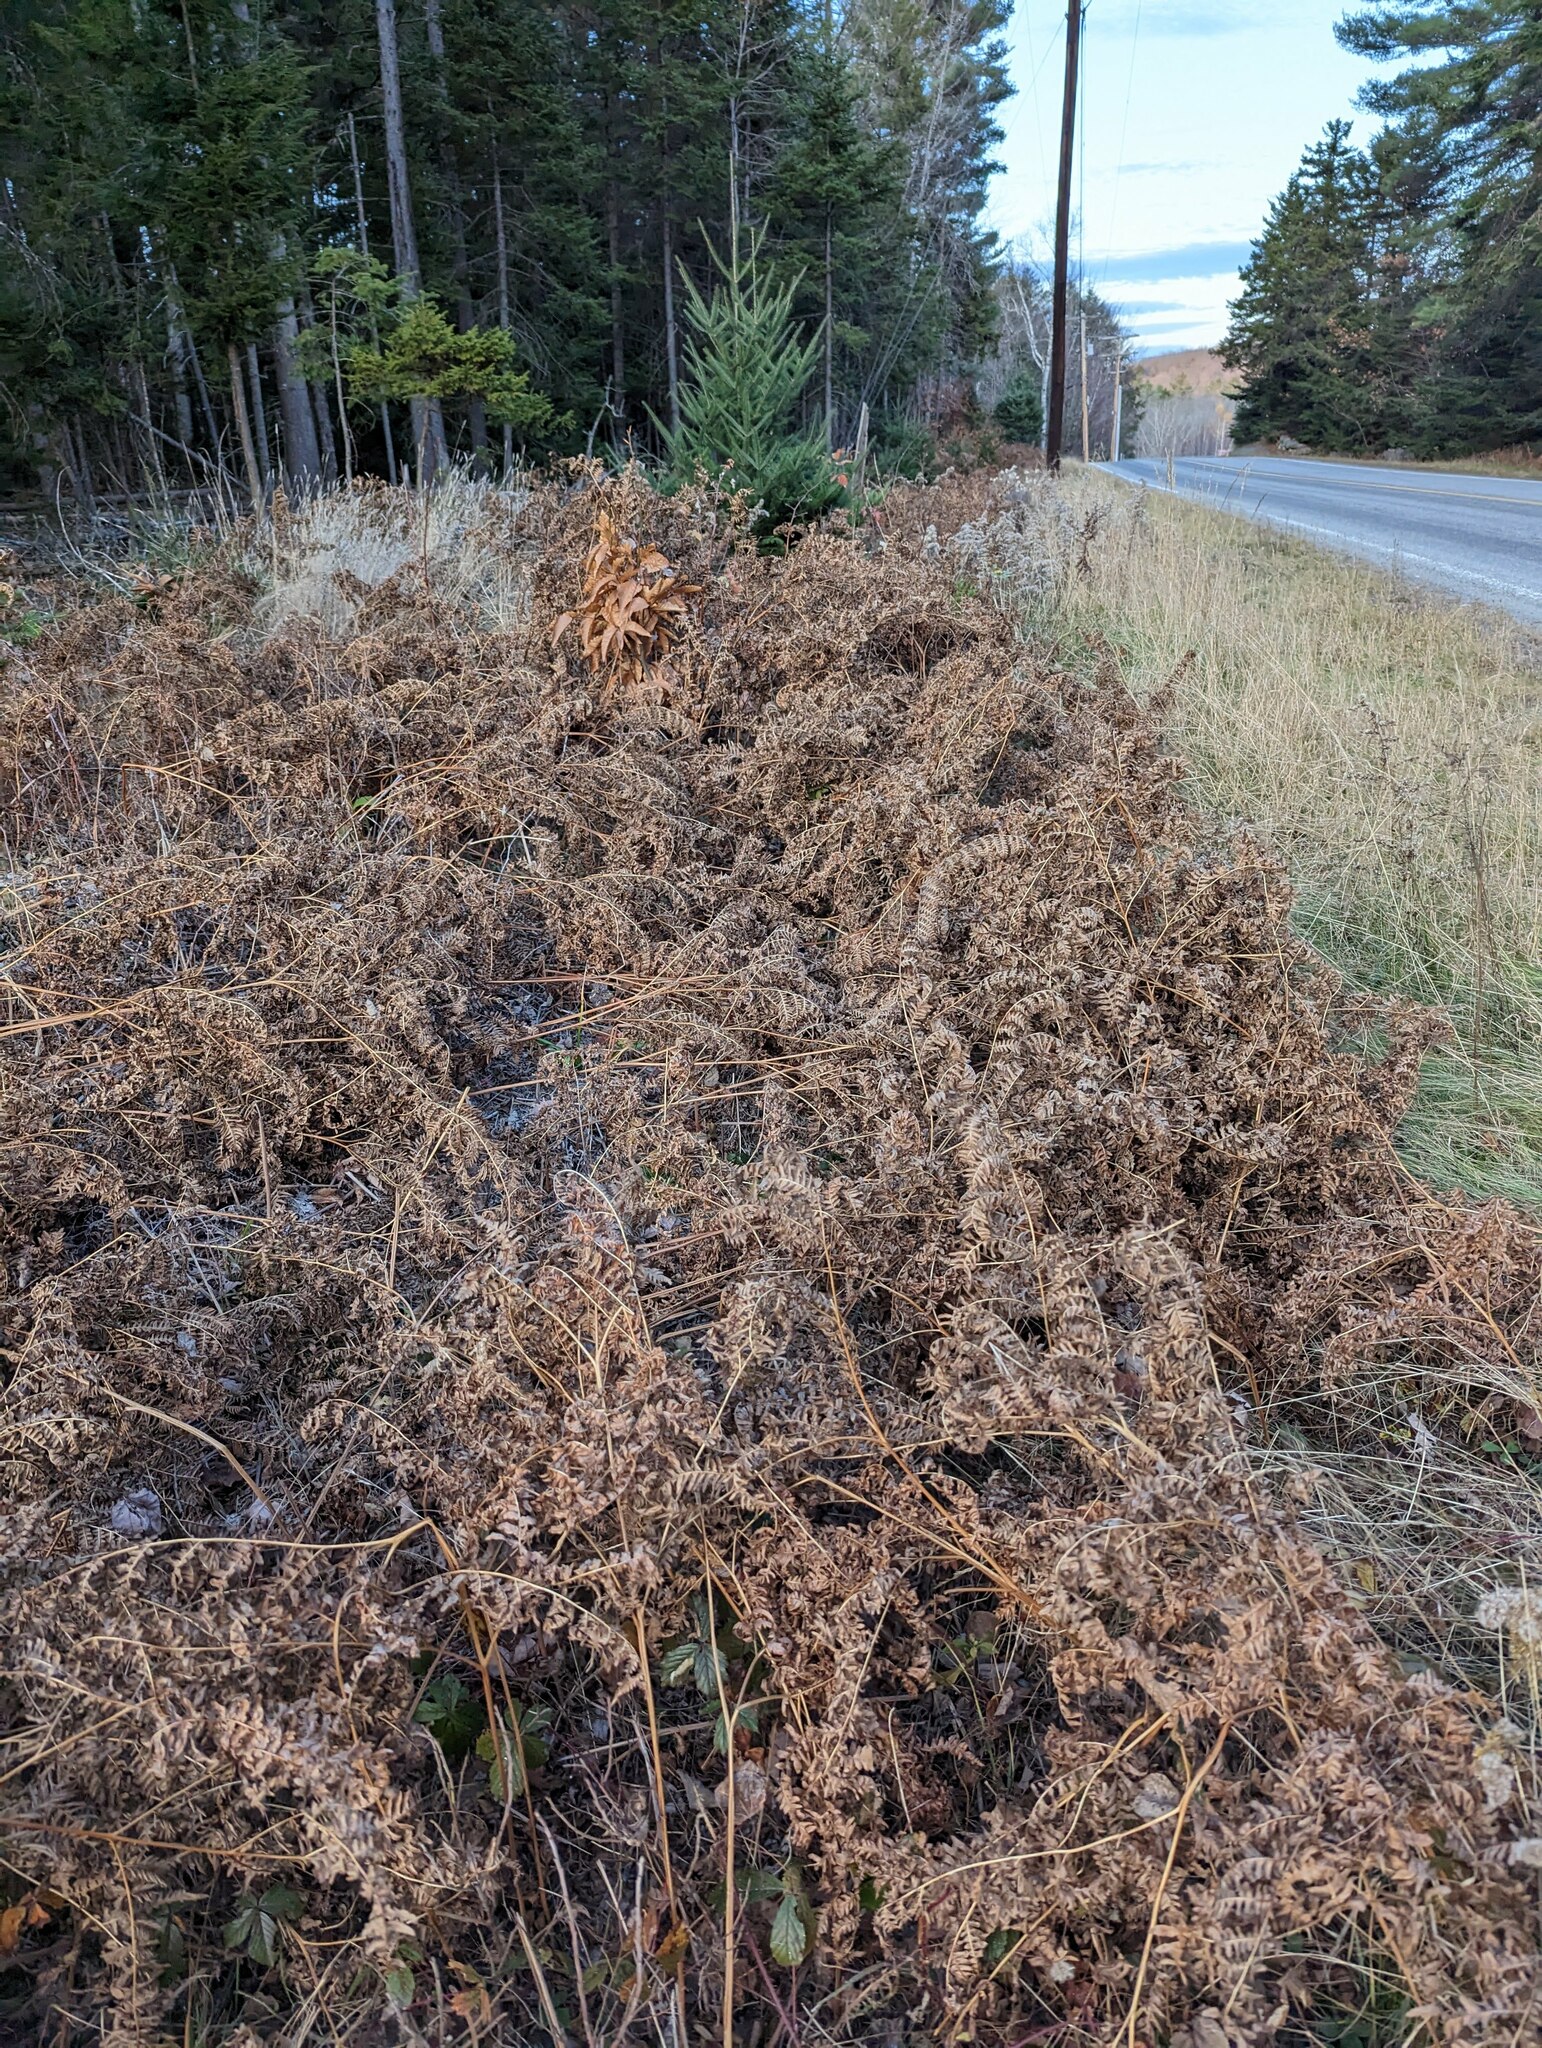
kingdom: Plantae
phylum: Tracheophyta
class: Polypodiopsida
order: Polypodiales
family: Dennstaedtiaceae
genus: Pteridium
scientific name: Pteridium aquilinum
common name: Bracken
